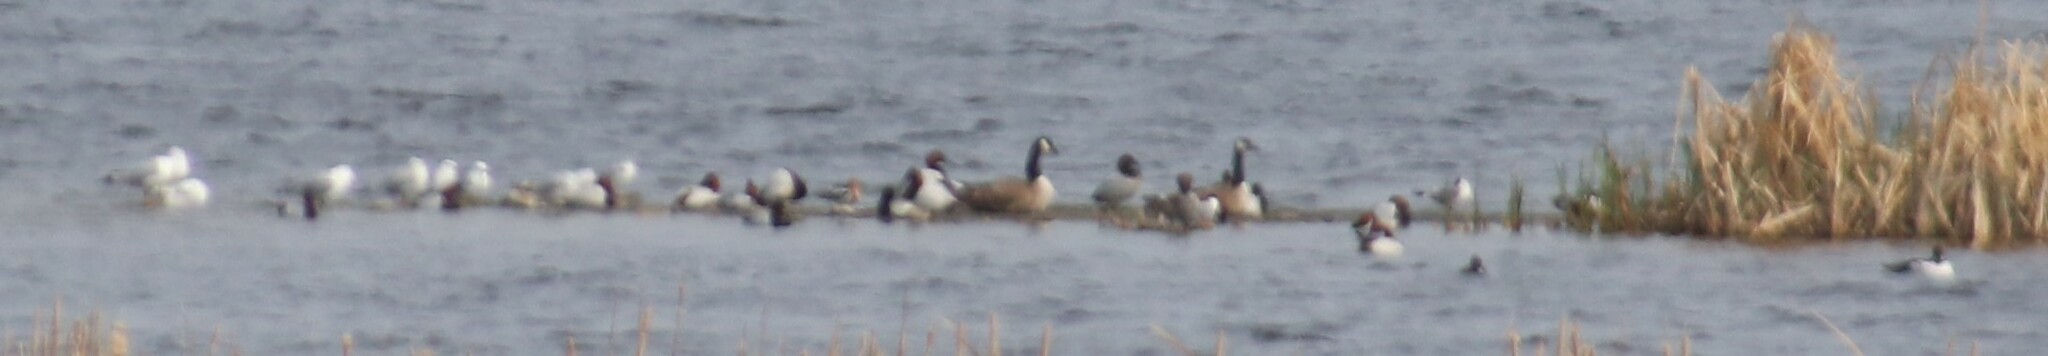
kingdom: Animalia
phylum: Chordata
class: Aves
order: Anseriformes
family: Anatidae
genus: Aythya
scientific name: Aythya valisineria
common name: Canvasback
